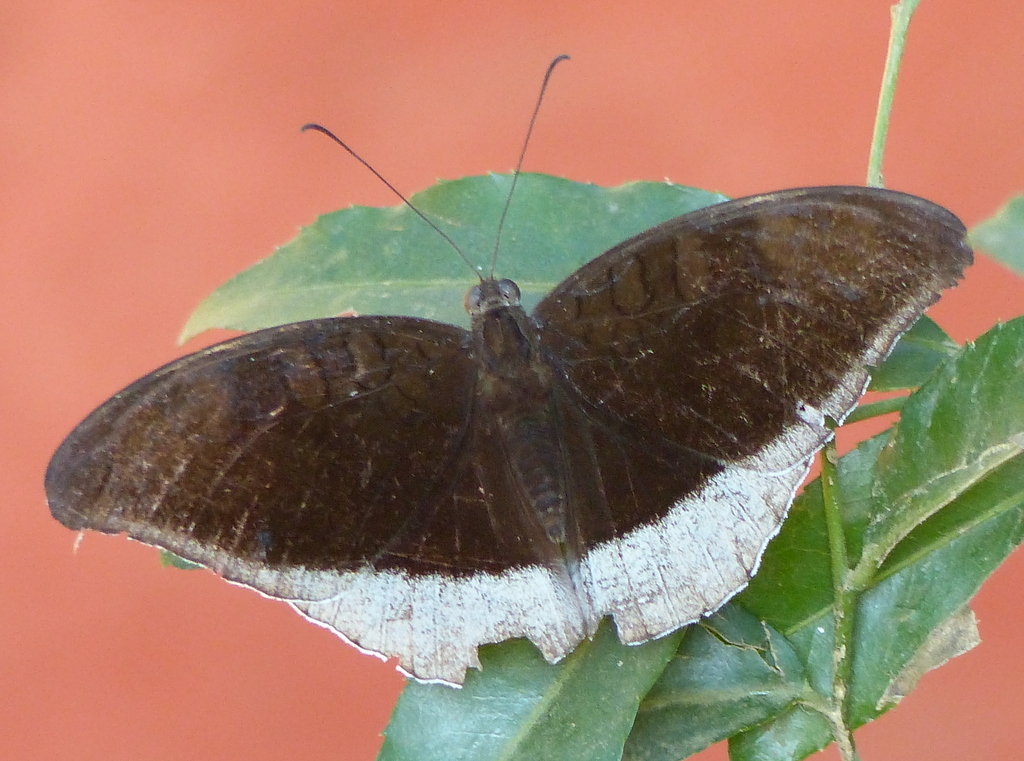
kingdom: Animalia
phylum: Arthropoda
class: Insecta
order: Lepidoptera
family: Nymphalidae
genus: Tanaecia
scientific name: Tanaecia lepidea
